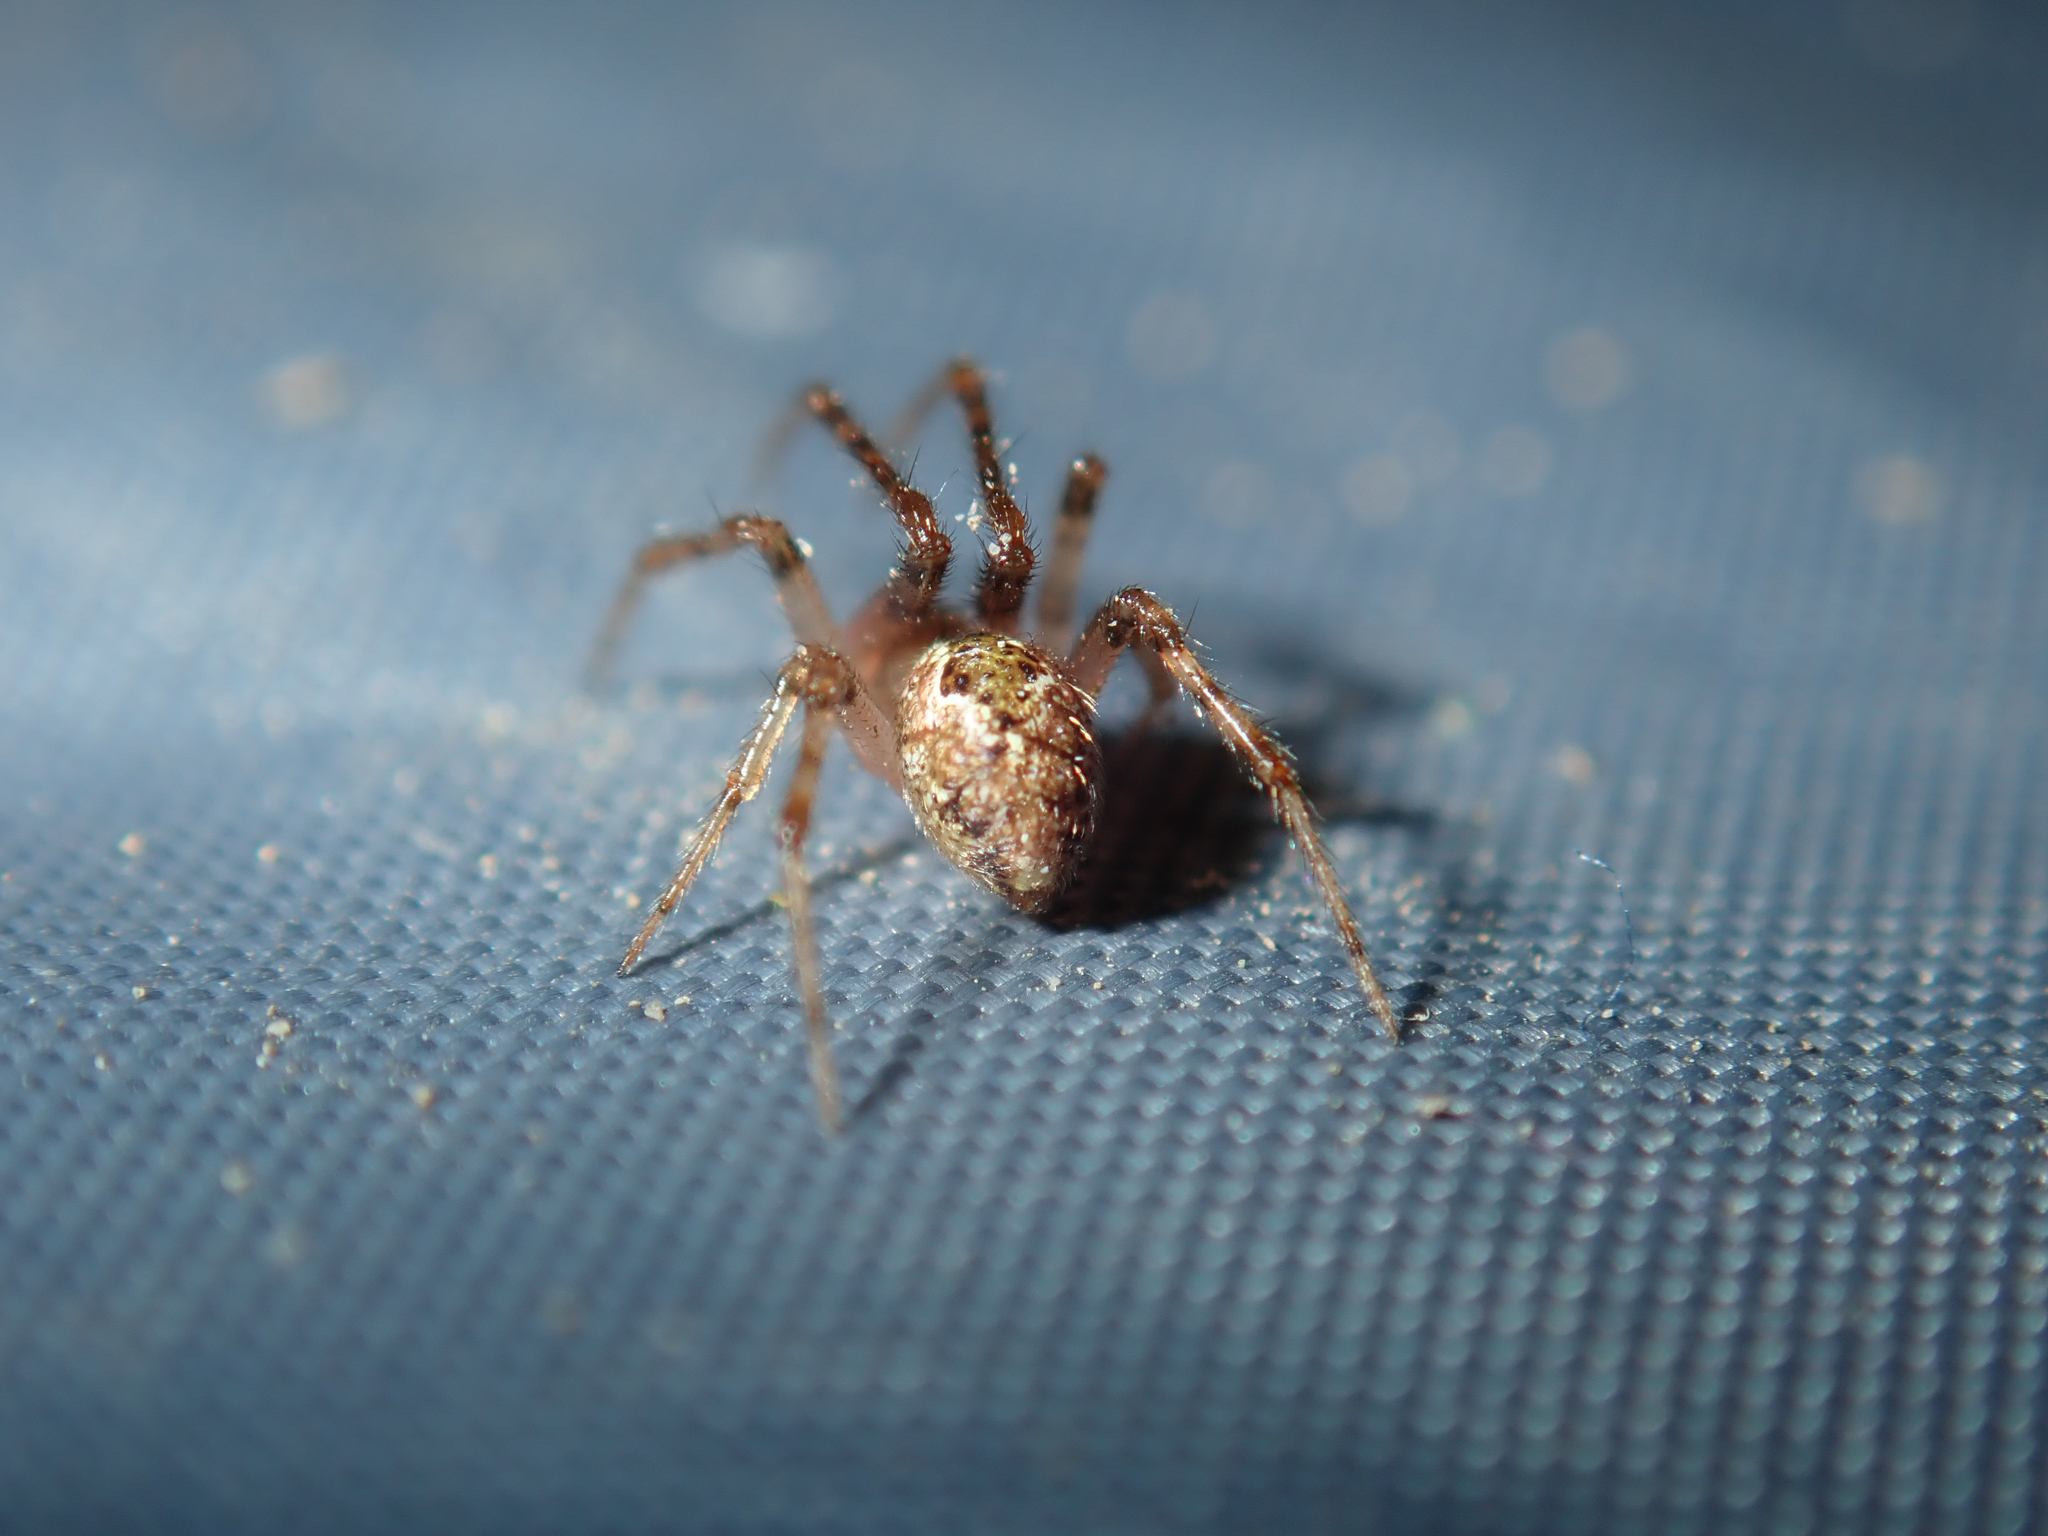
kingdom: Animalia
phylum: Arthropoda
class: Arachnida
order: Araneae
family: Theridiidae
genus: Cryptachaea
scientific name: Cryptachaea veruculata
